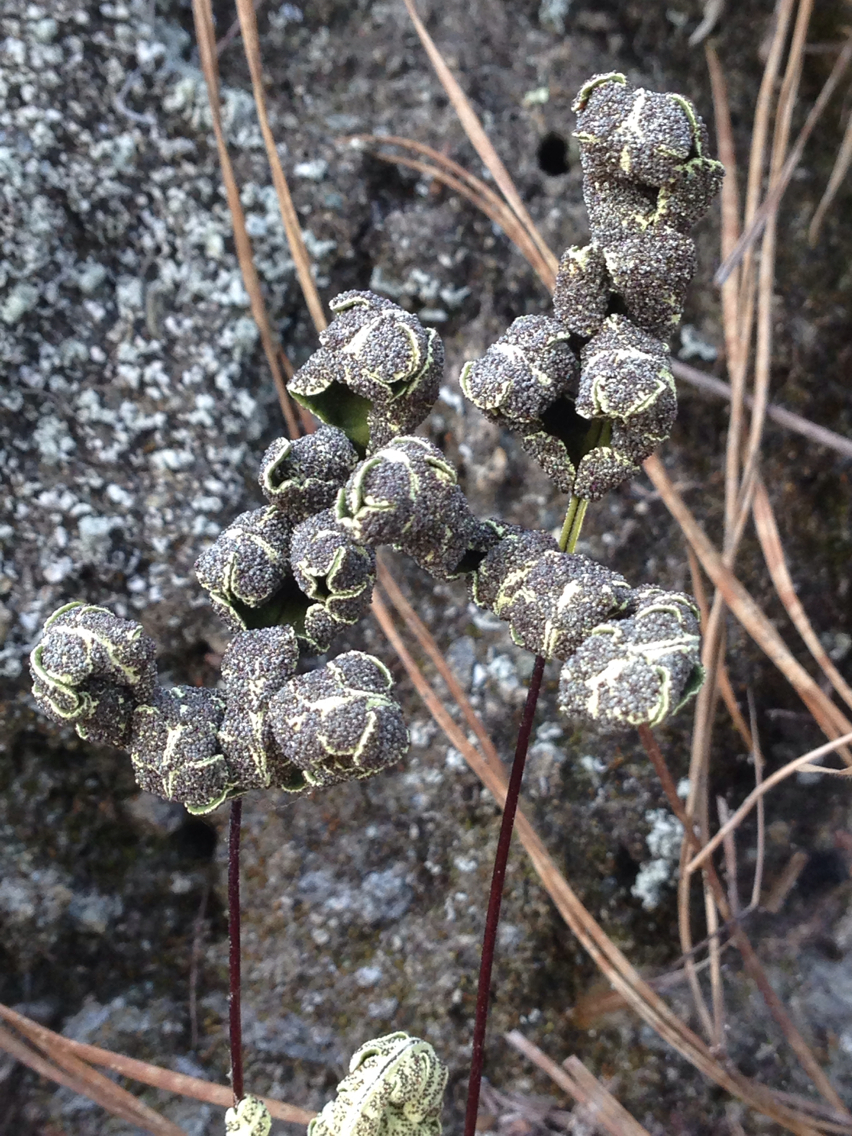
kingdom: Plantae
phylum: Tracheophyta
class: Polypodiopsida
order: Polypodiales
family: Pteridaceae
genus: Pentagramma
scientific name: Pentagramma triangularis
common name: Gold fern
